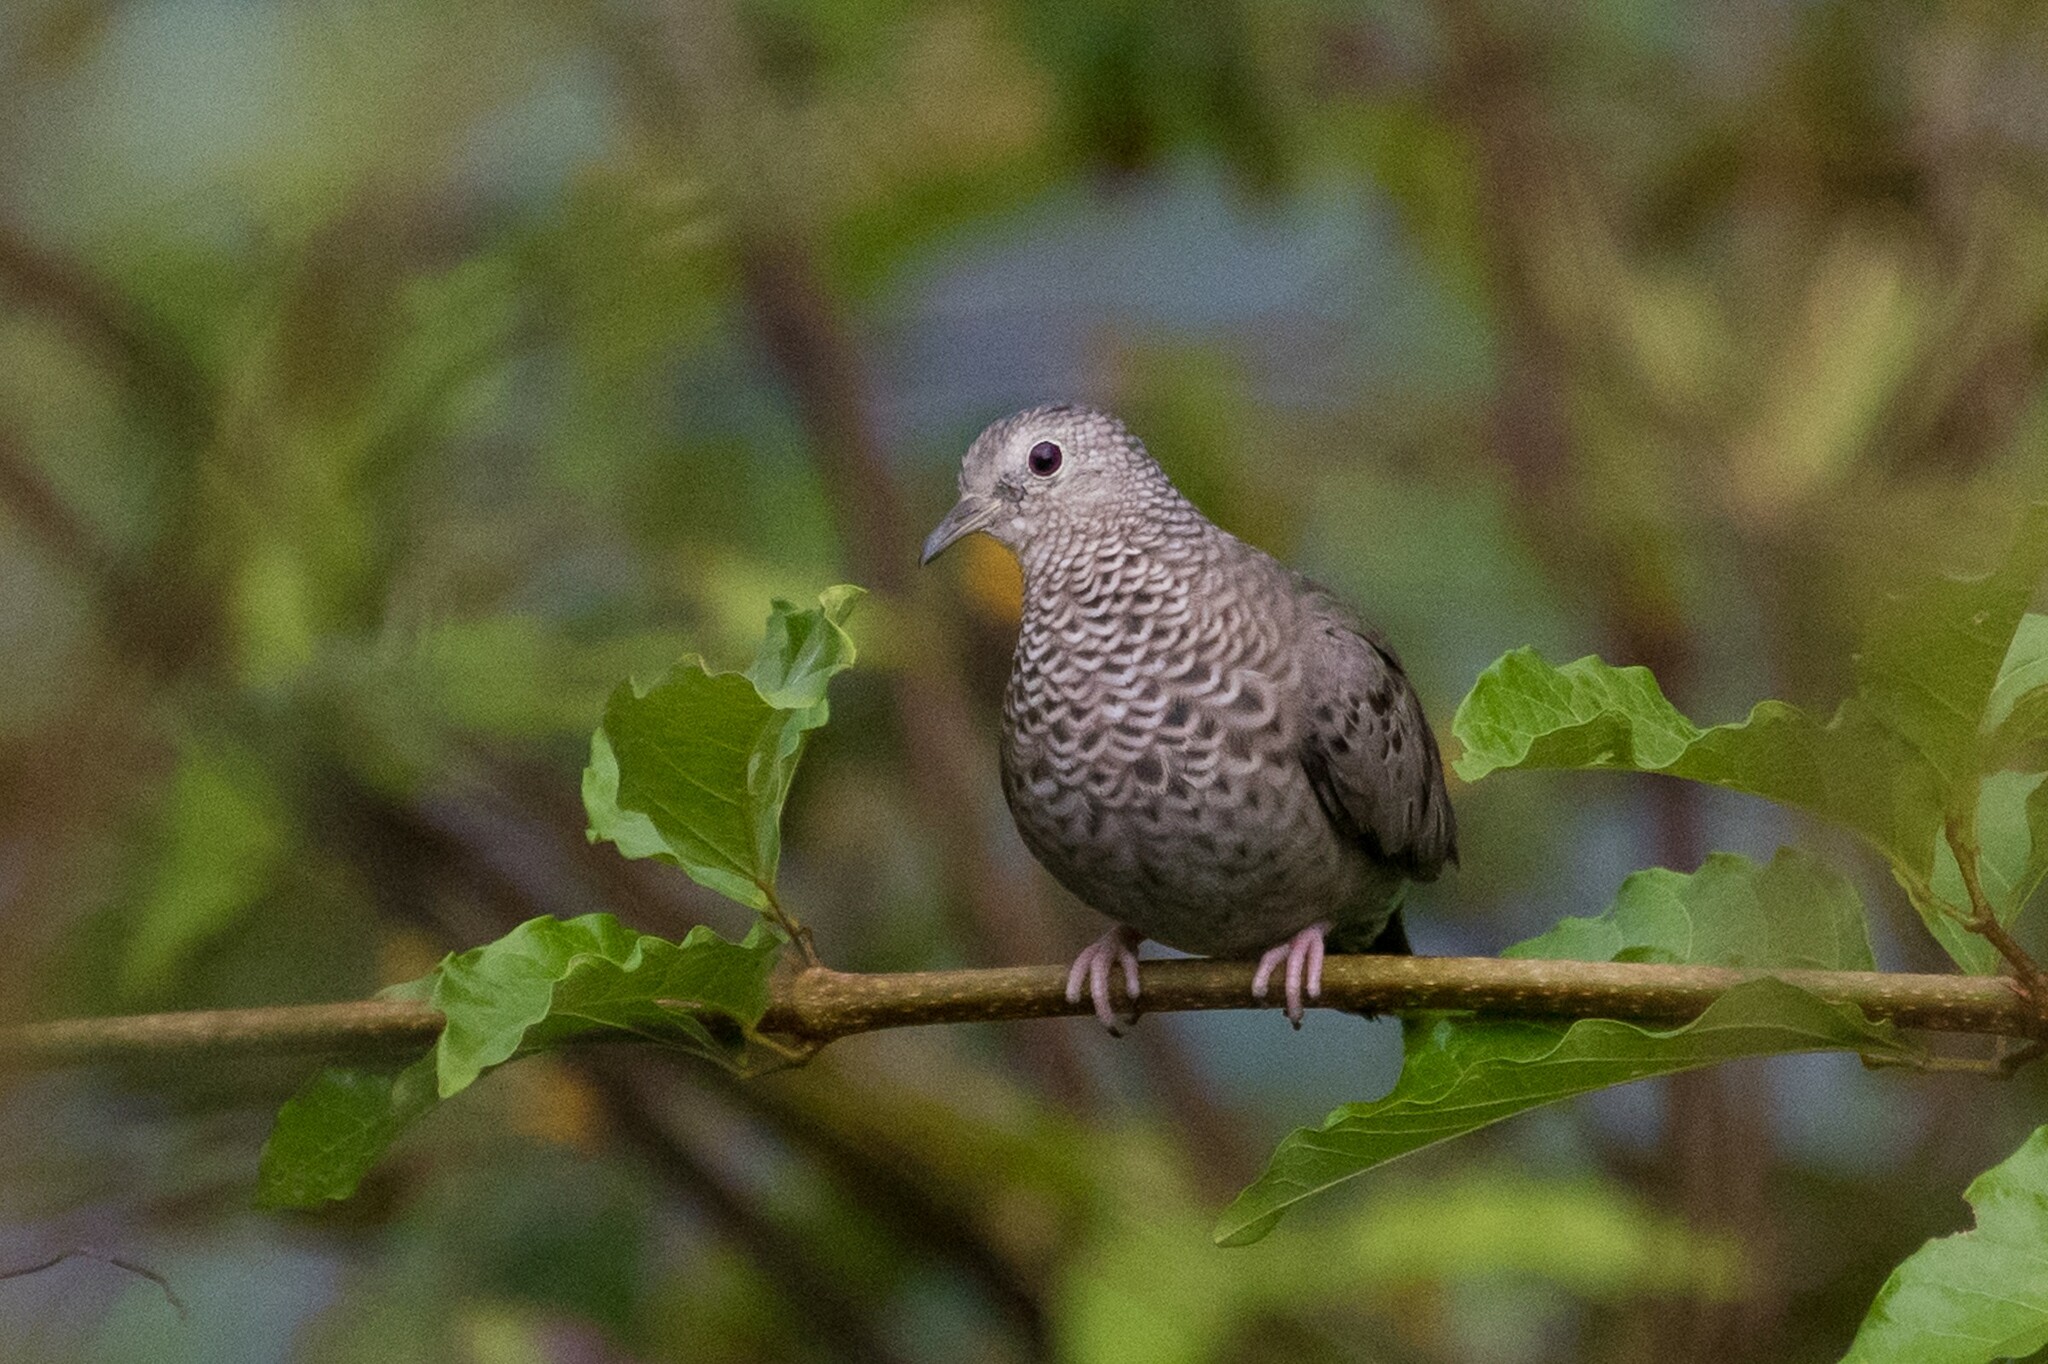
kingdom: Animalia
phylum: Chordata
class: Aves
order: Columbiformes
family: Columbidae
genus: Columbina
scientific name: Columbina passerina
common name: Common ground-dove
